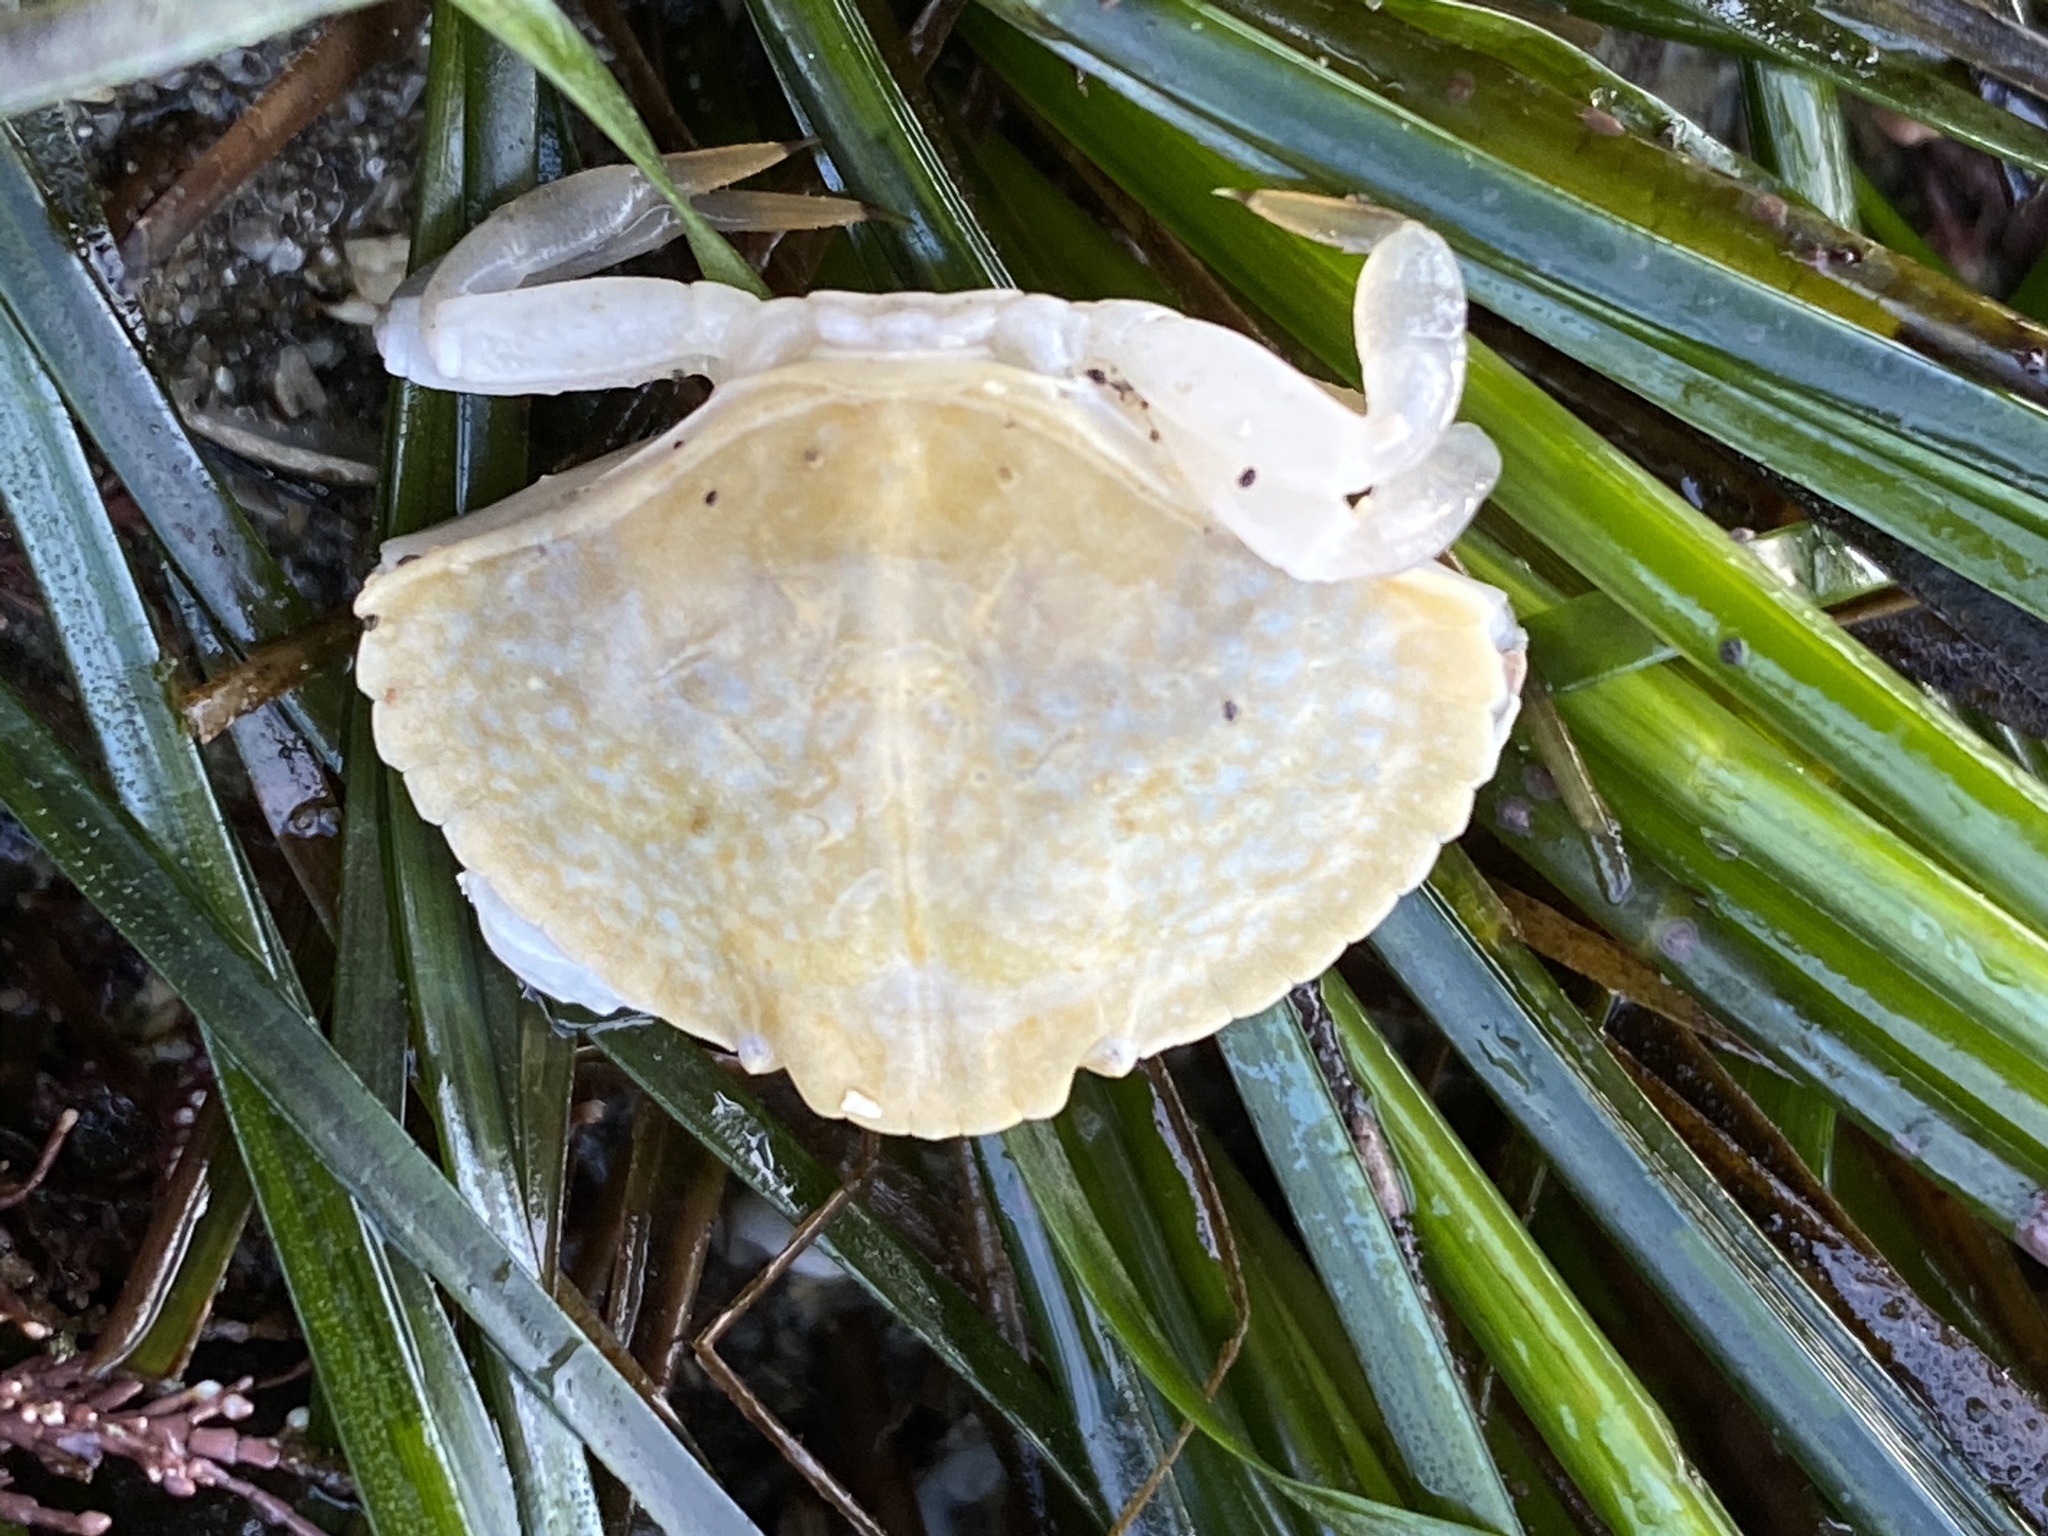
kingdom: Animalia
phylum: Arthropoda
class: Malacostraca
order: Decapoda
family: Cancridae
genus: Cancer
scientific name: Cancer productus
